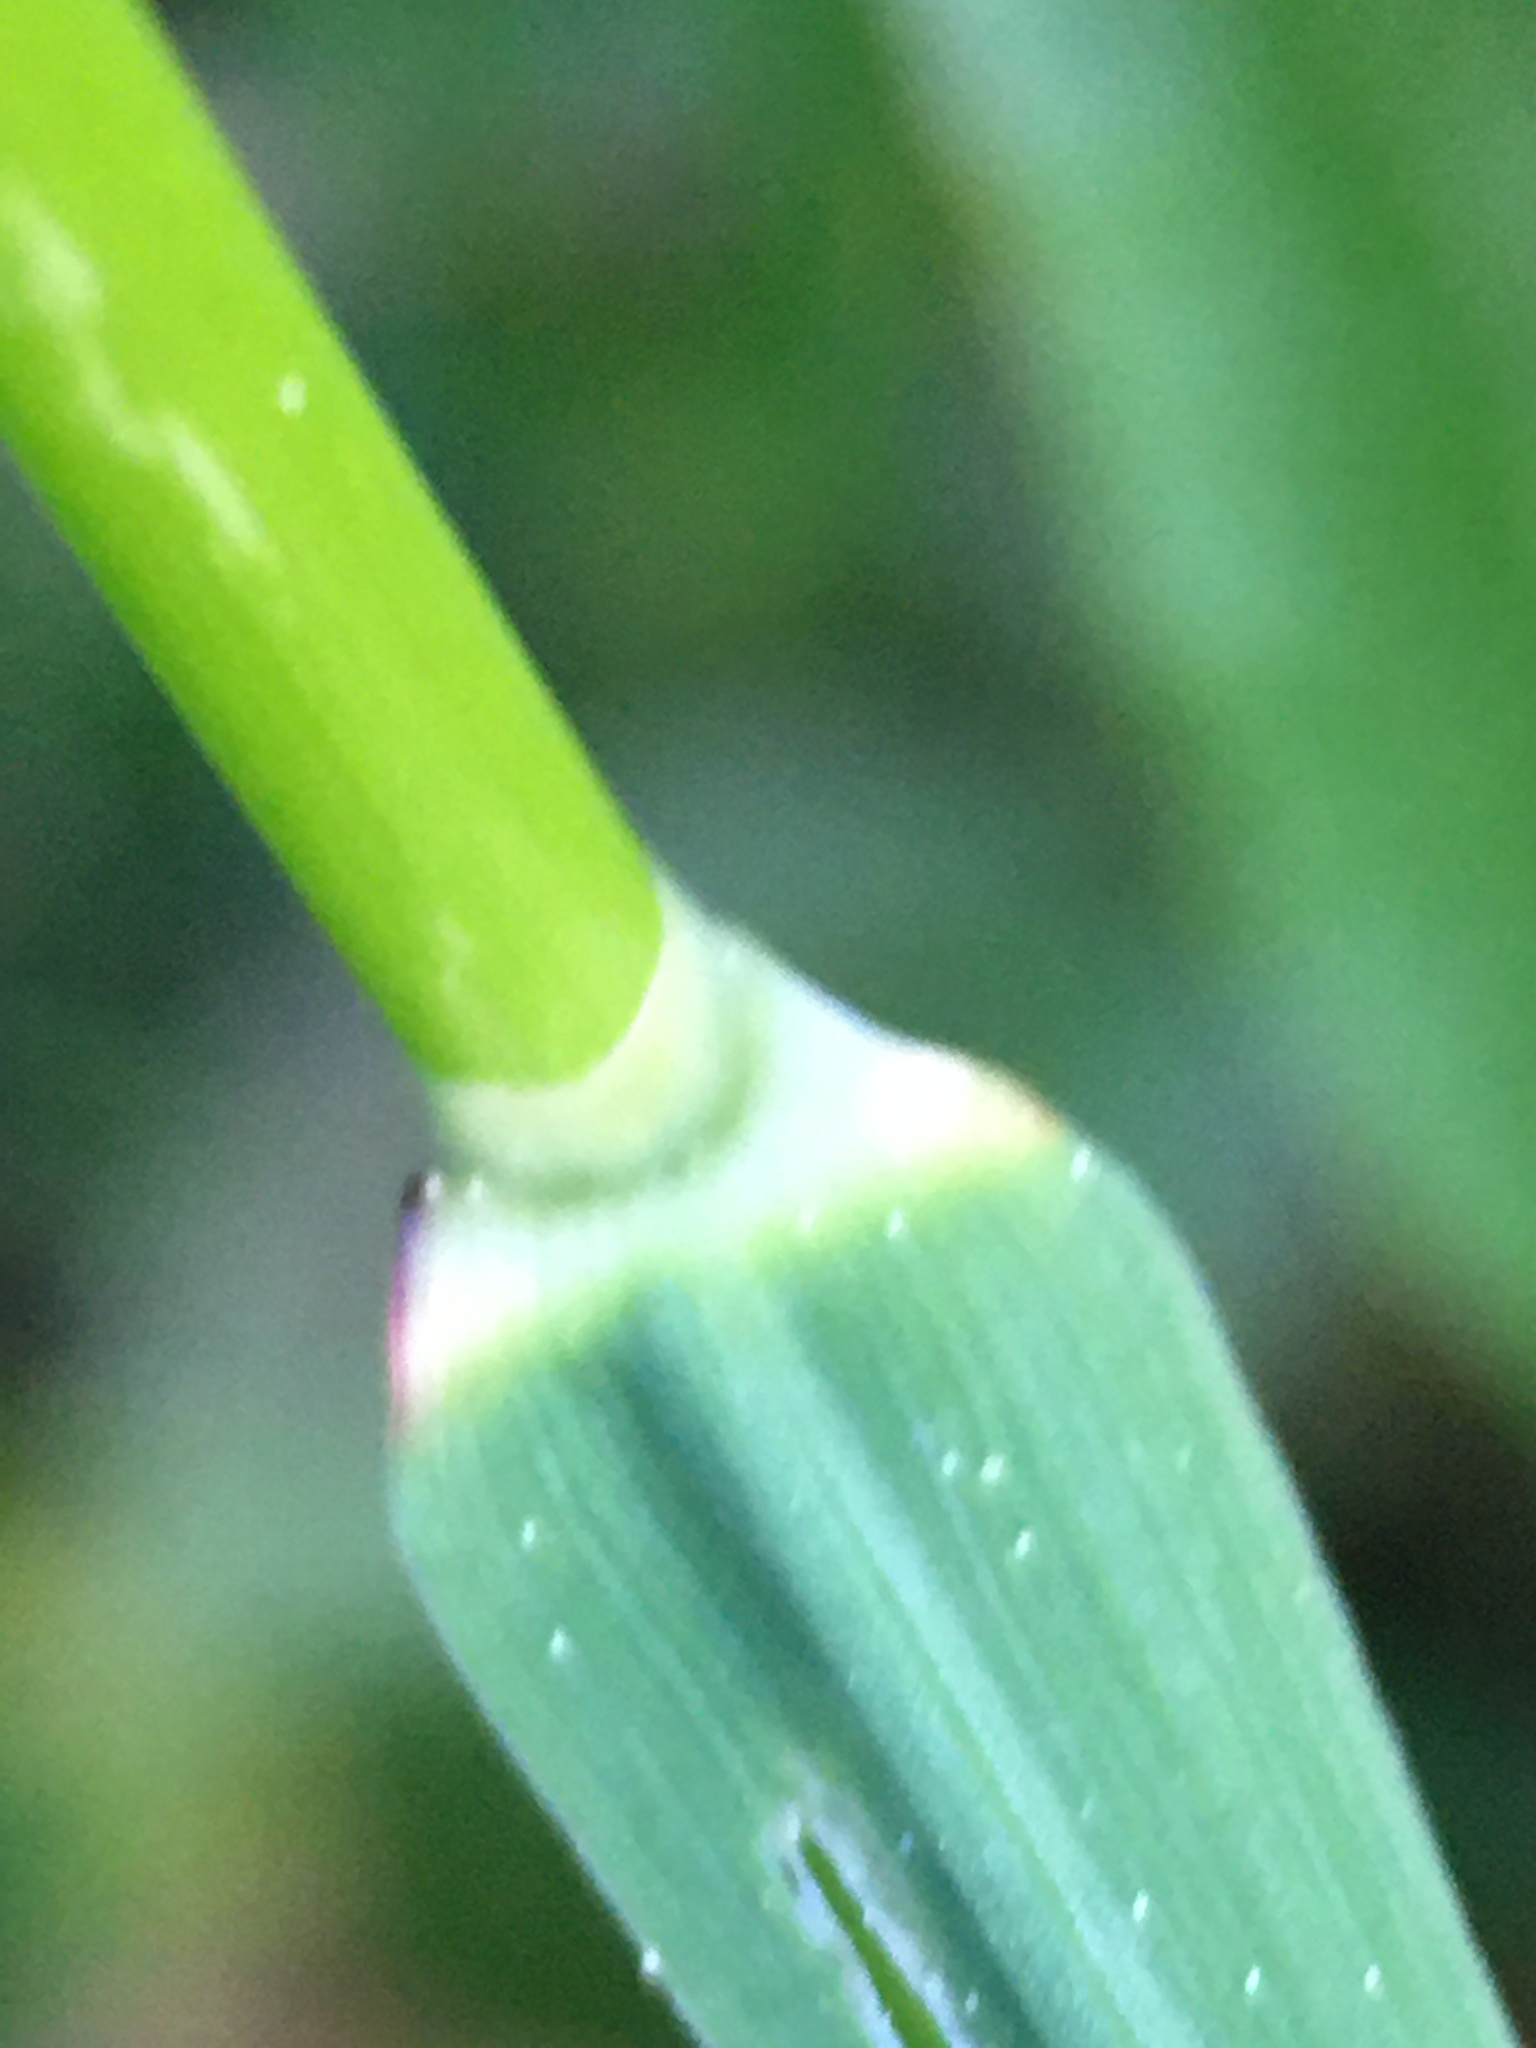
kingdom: Plantae
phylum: Tracheophyta
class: Liliopsida
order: Poales
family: Poaceae
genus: Alopecurus
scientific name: Alopecurus pratensis
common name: Meadow foxtail
